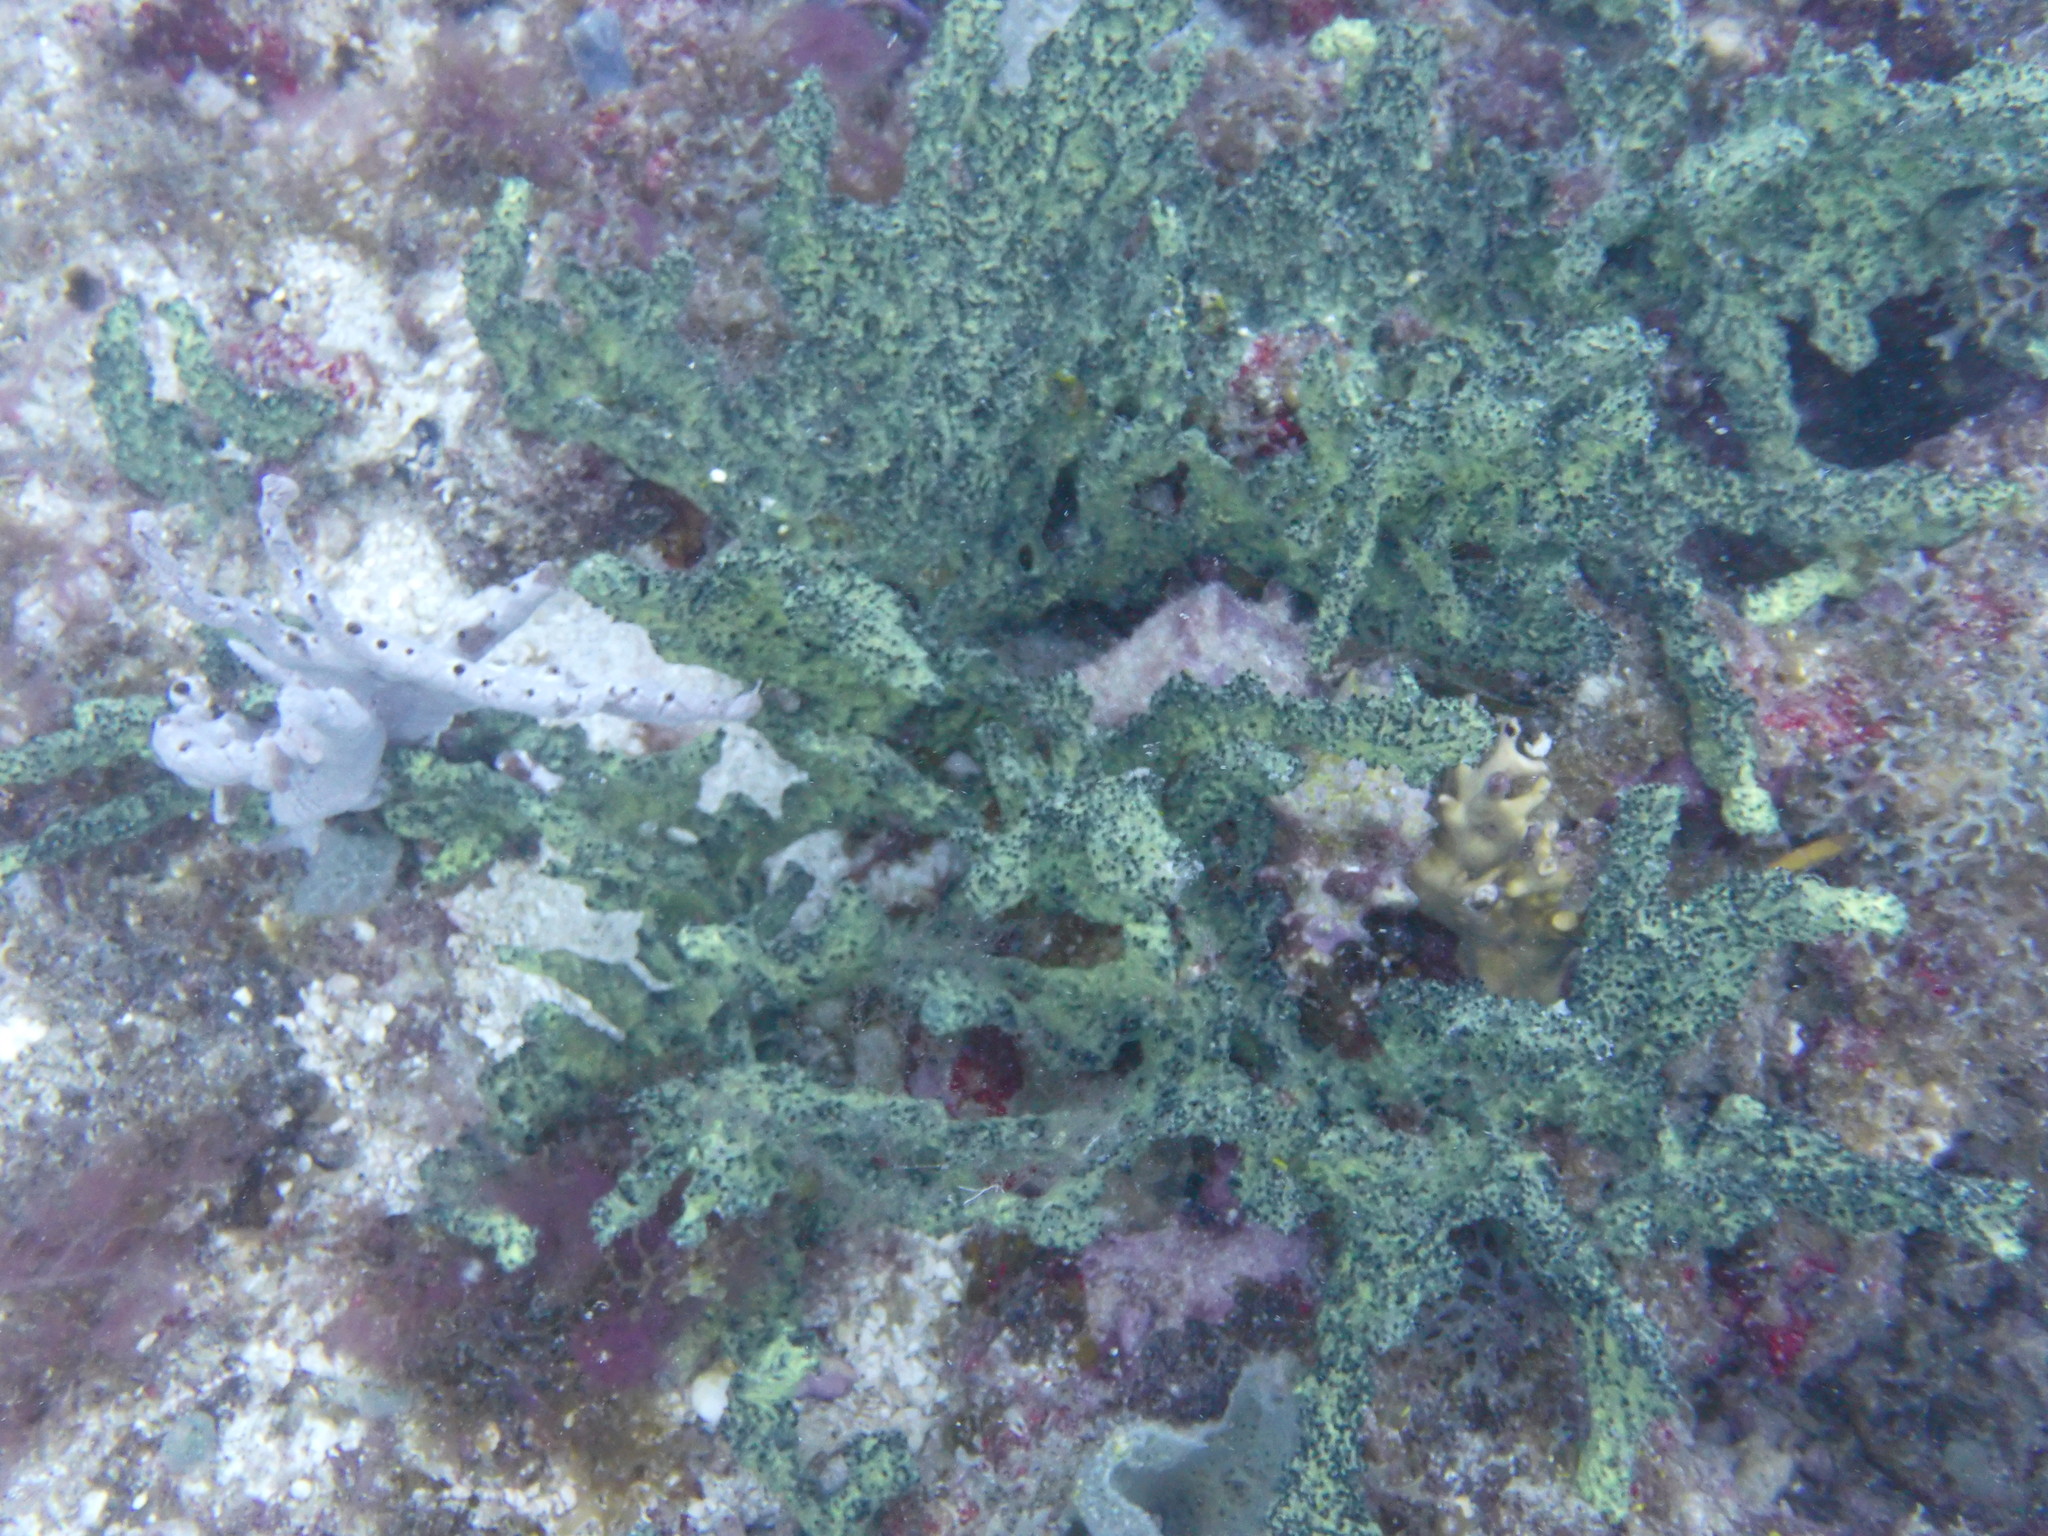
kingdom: Animalia
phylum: Porifera
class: Demospongiae
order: Poecilosclerida
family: Iotrochotidae
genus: Iotrochota
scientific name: Iotrochota birotulata
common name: Purple bleeding sponge
